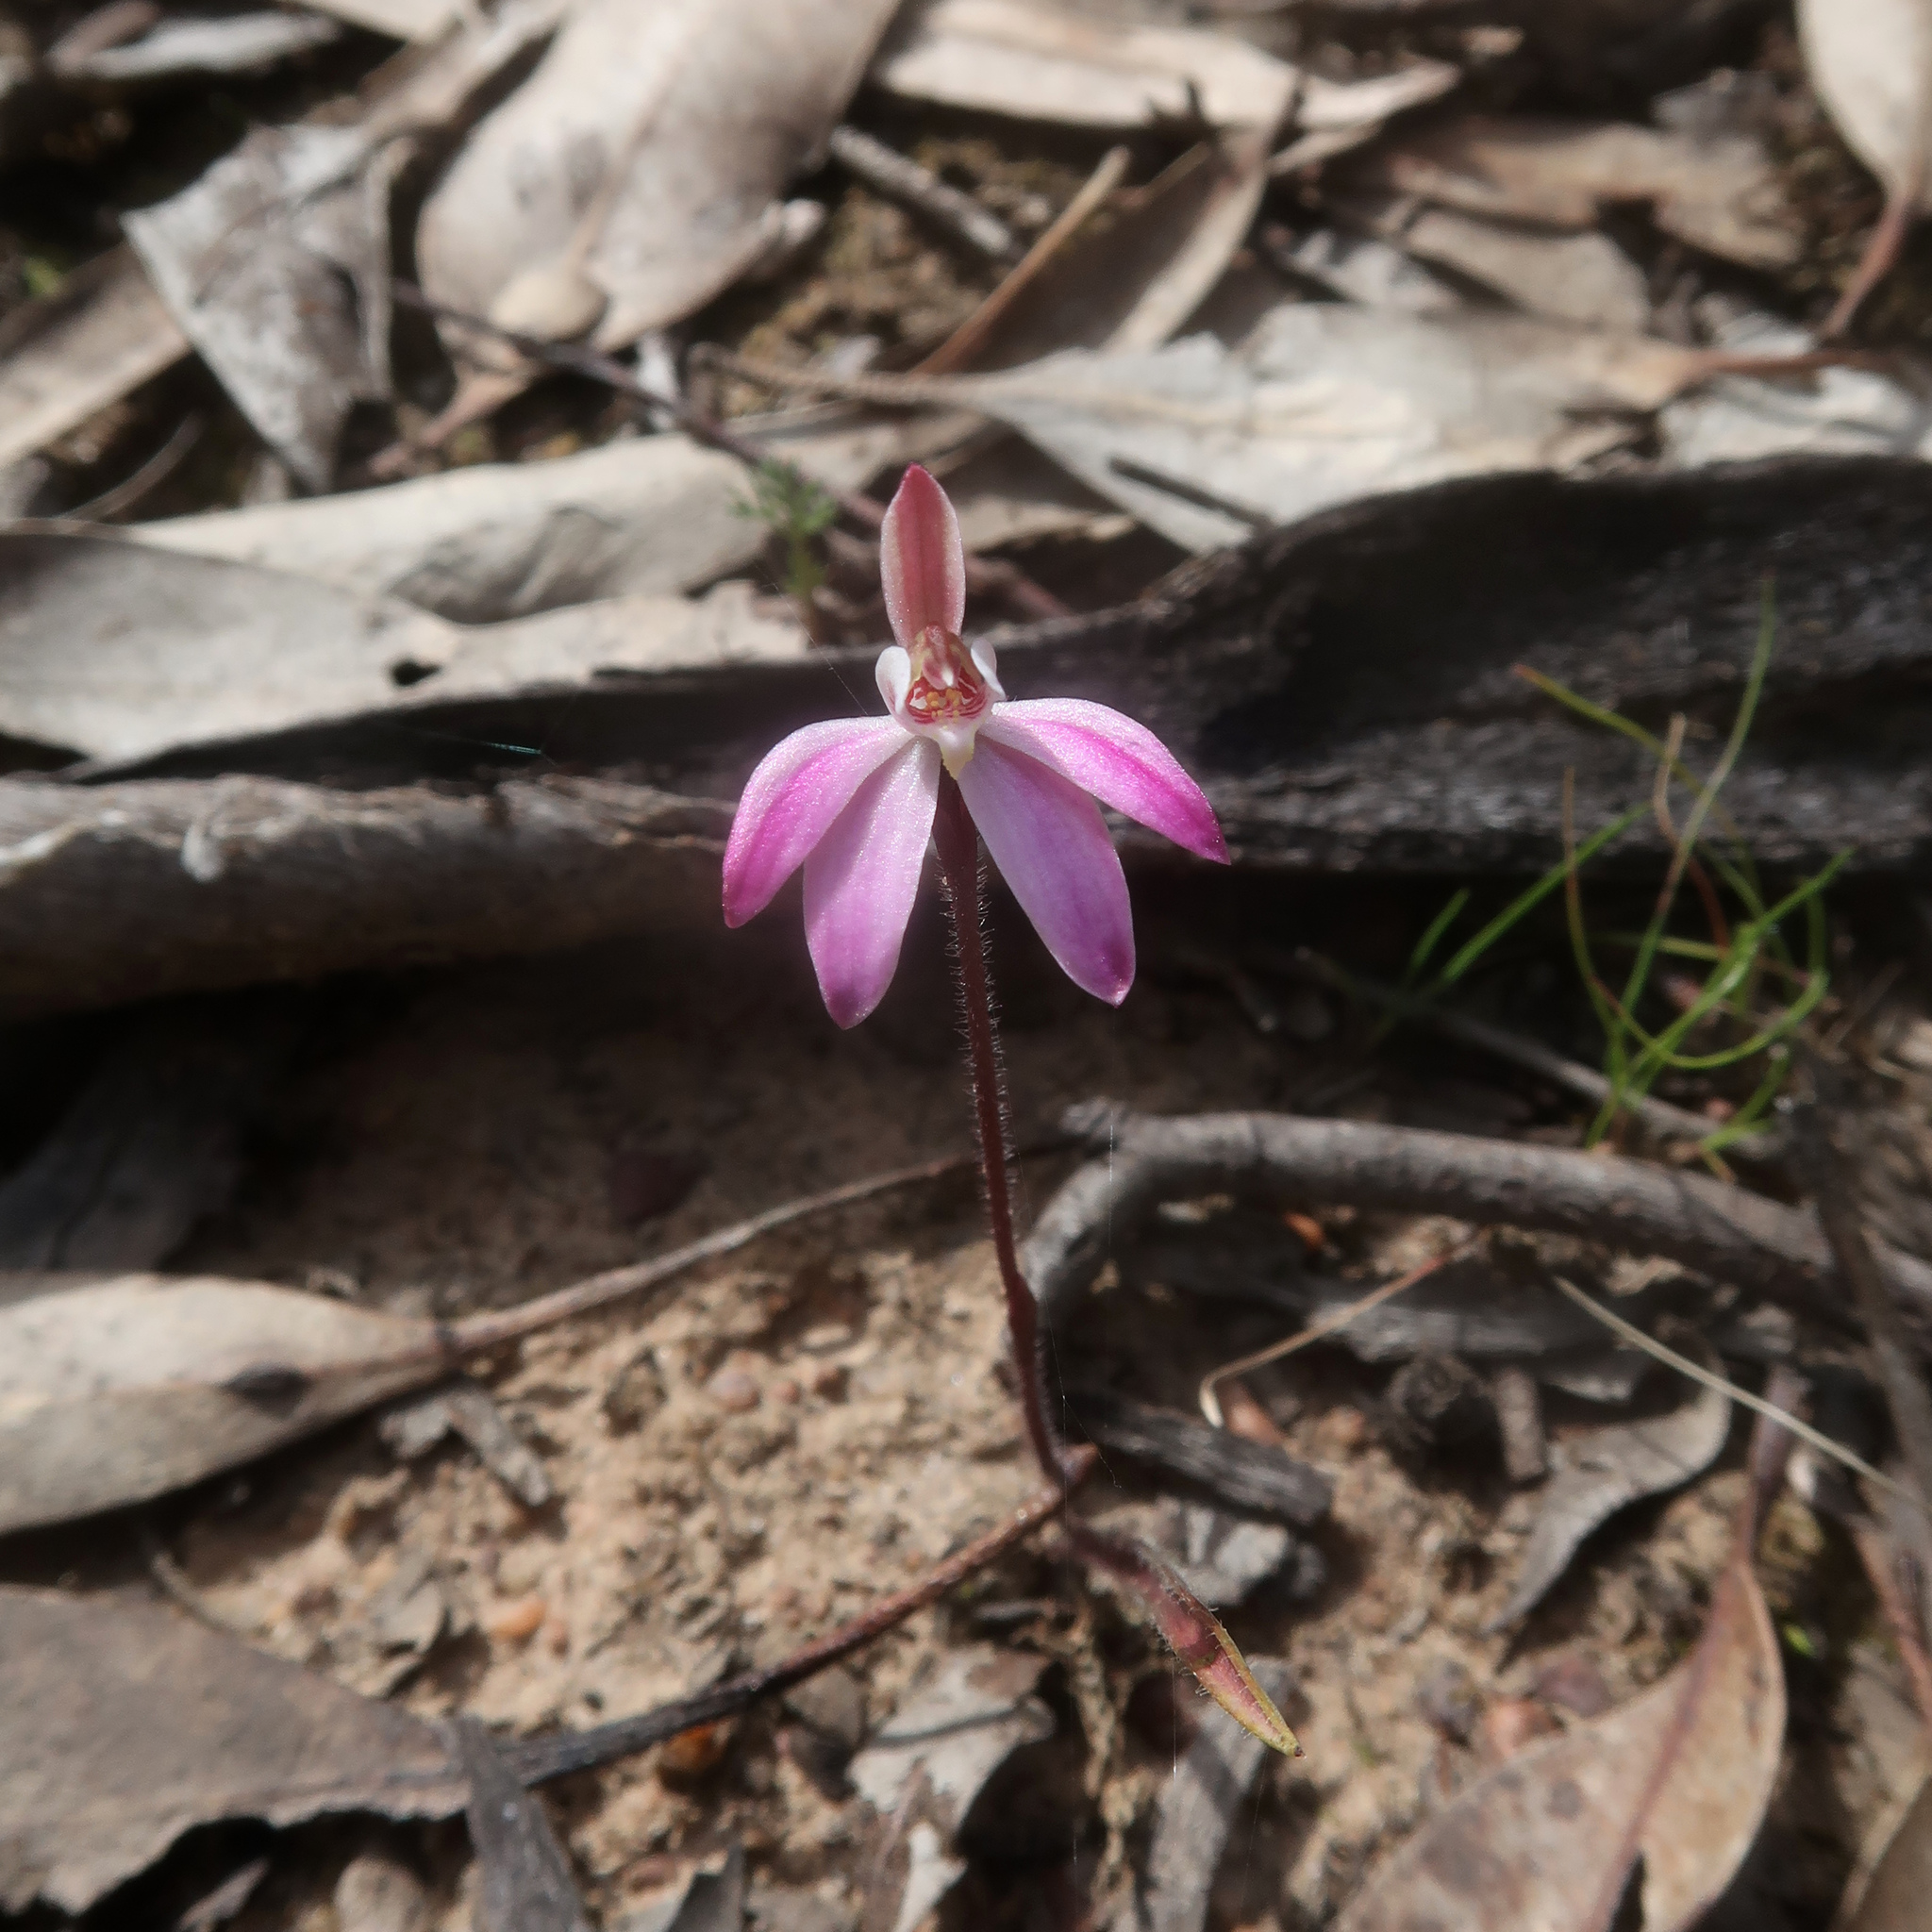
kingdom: Plantae
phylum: Tracheophyta
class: Liliopsida
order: Asparagales
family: Orchidaceae
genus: Caladenia
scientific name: Caladenia fuscata
